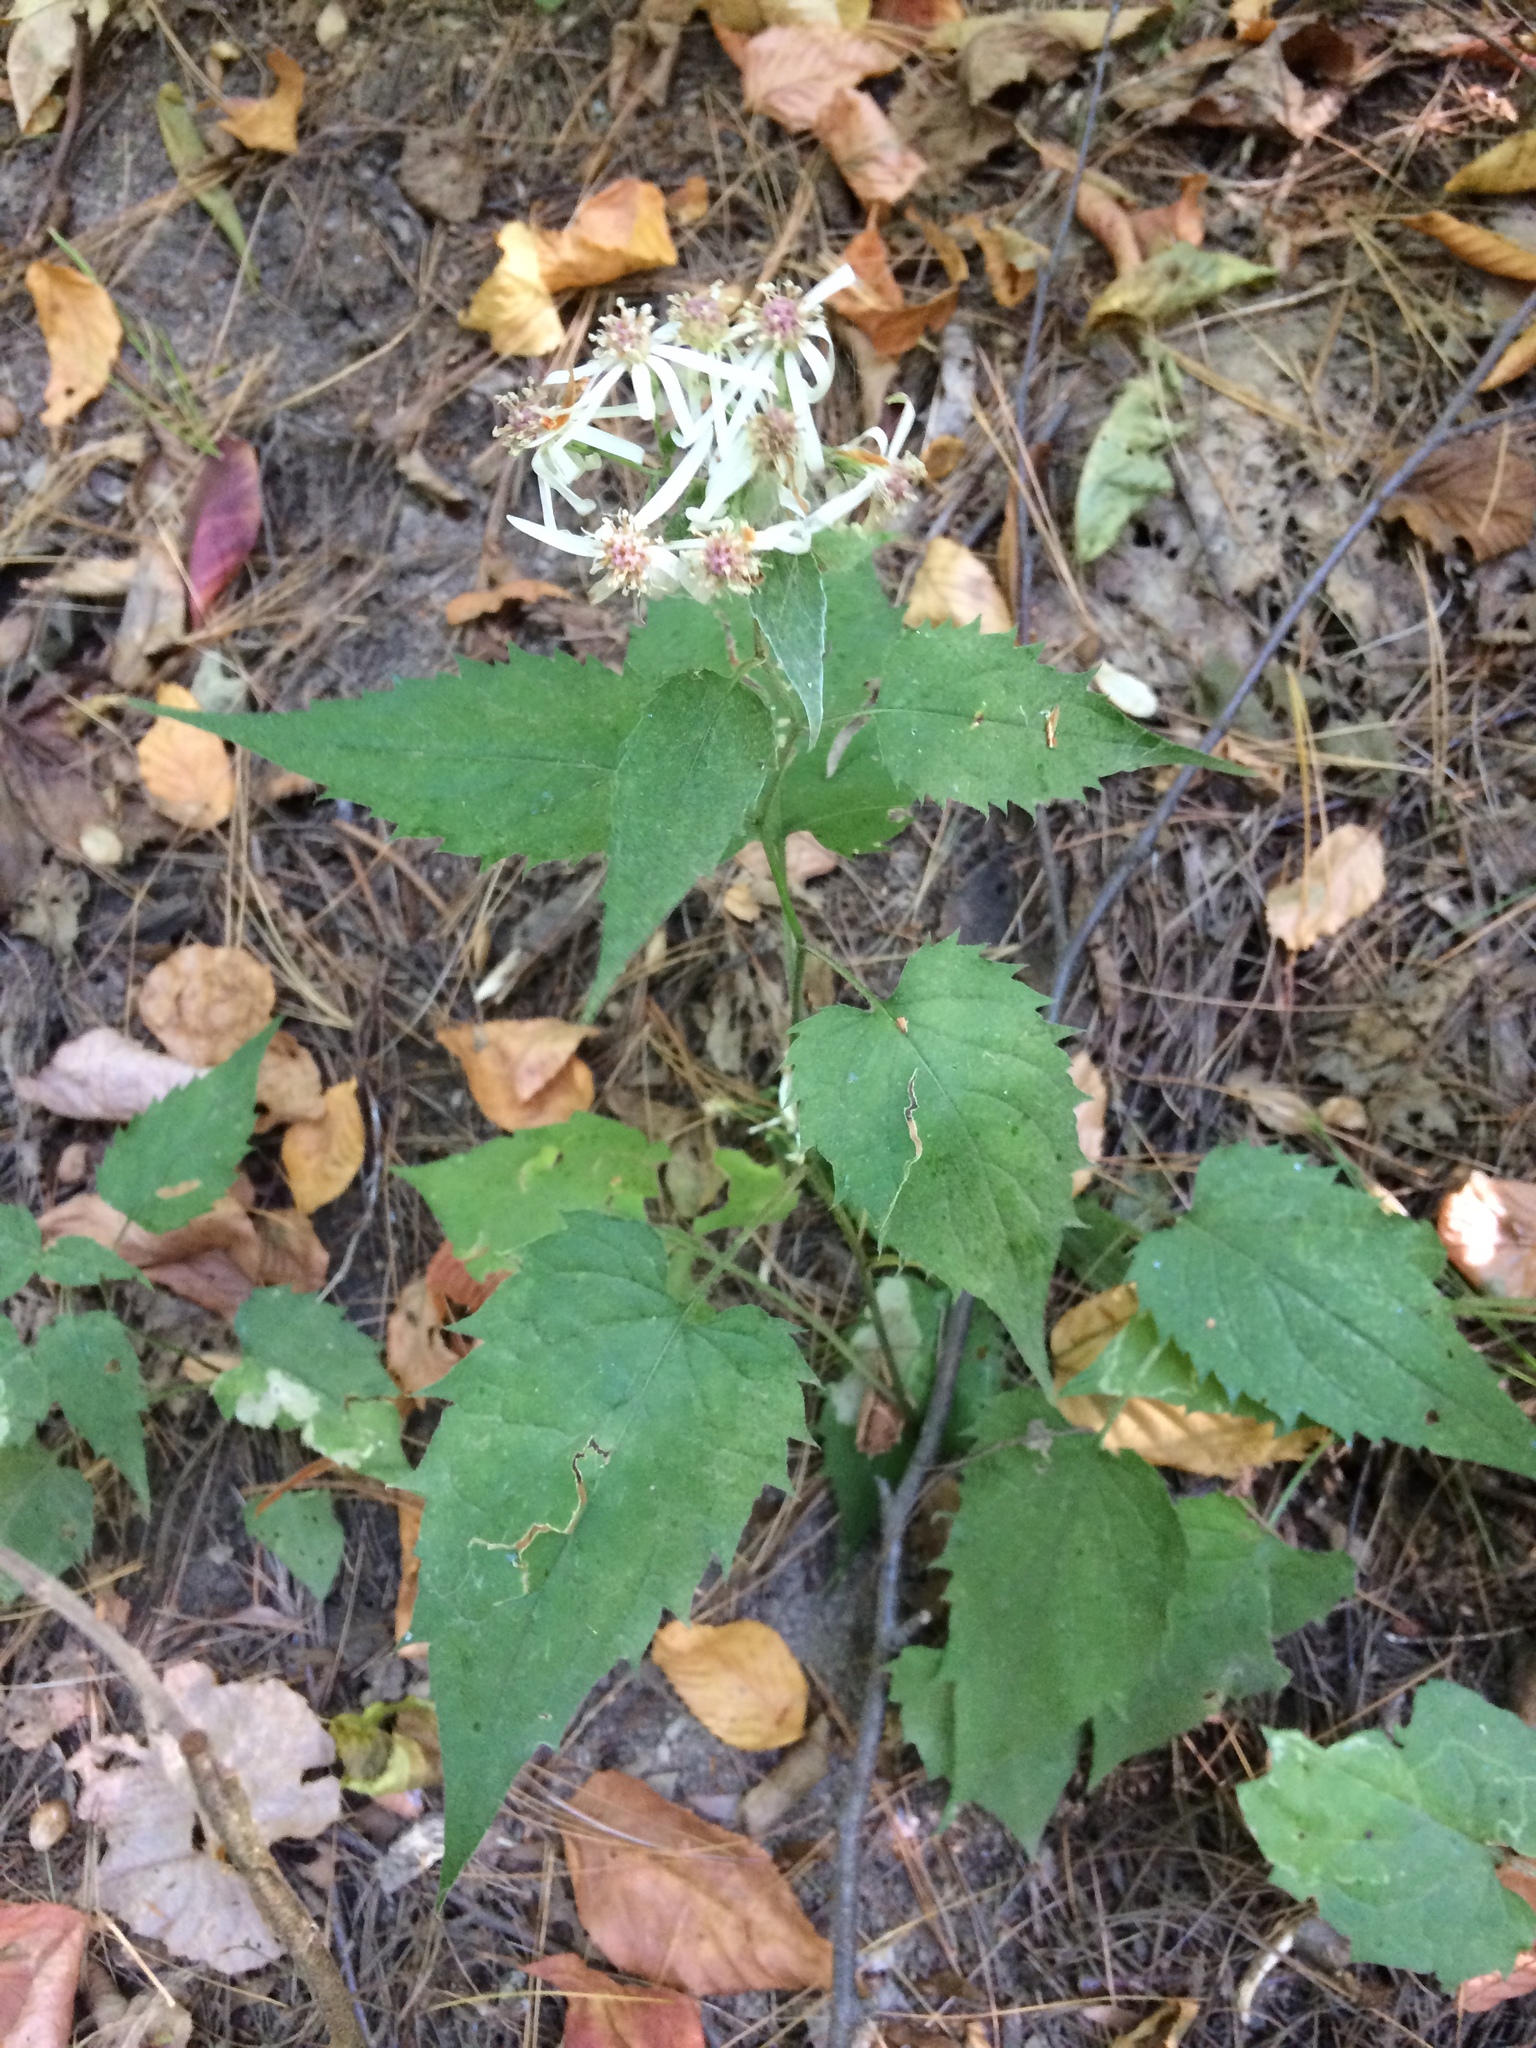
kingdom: Plantae
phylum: Tracheophyta
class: Magnoliopsida
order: Asterales
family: Asteraceae
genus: Eurybia
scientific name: Eurybia divaricata
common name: White wood aster
